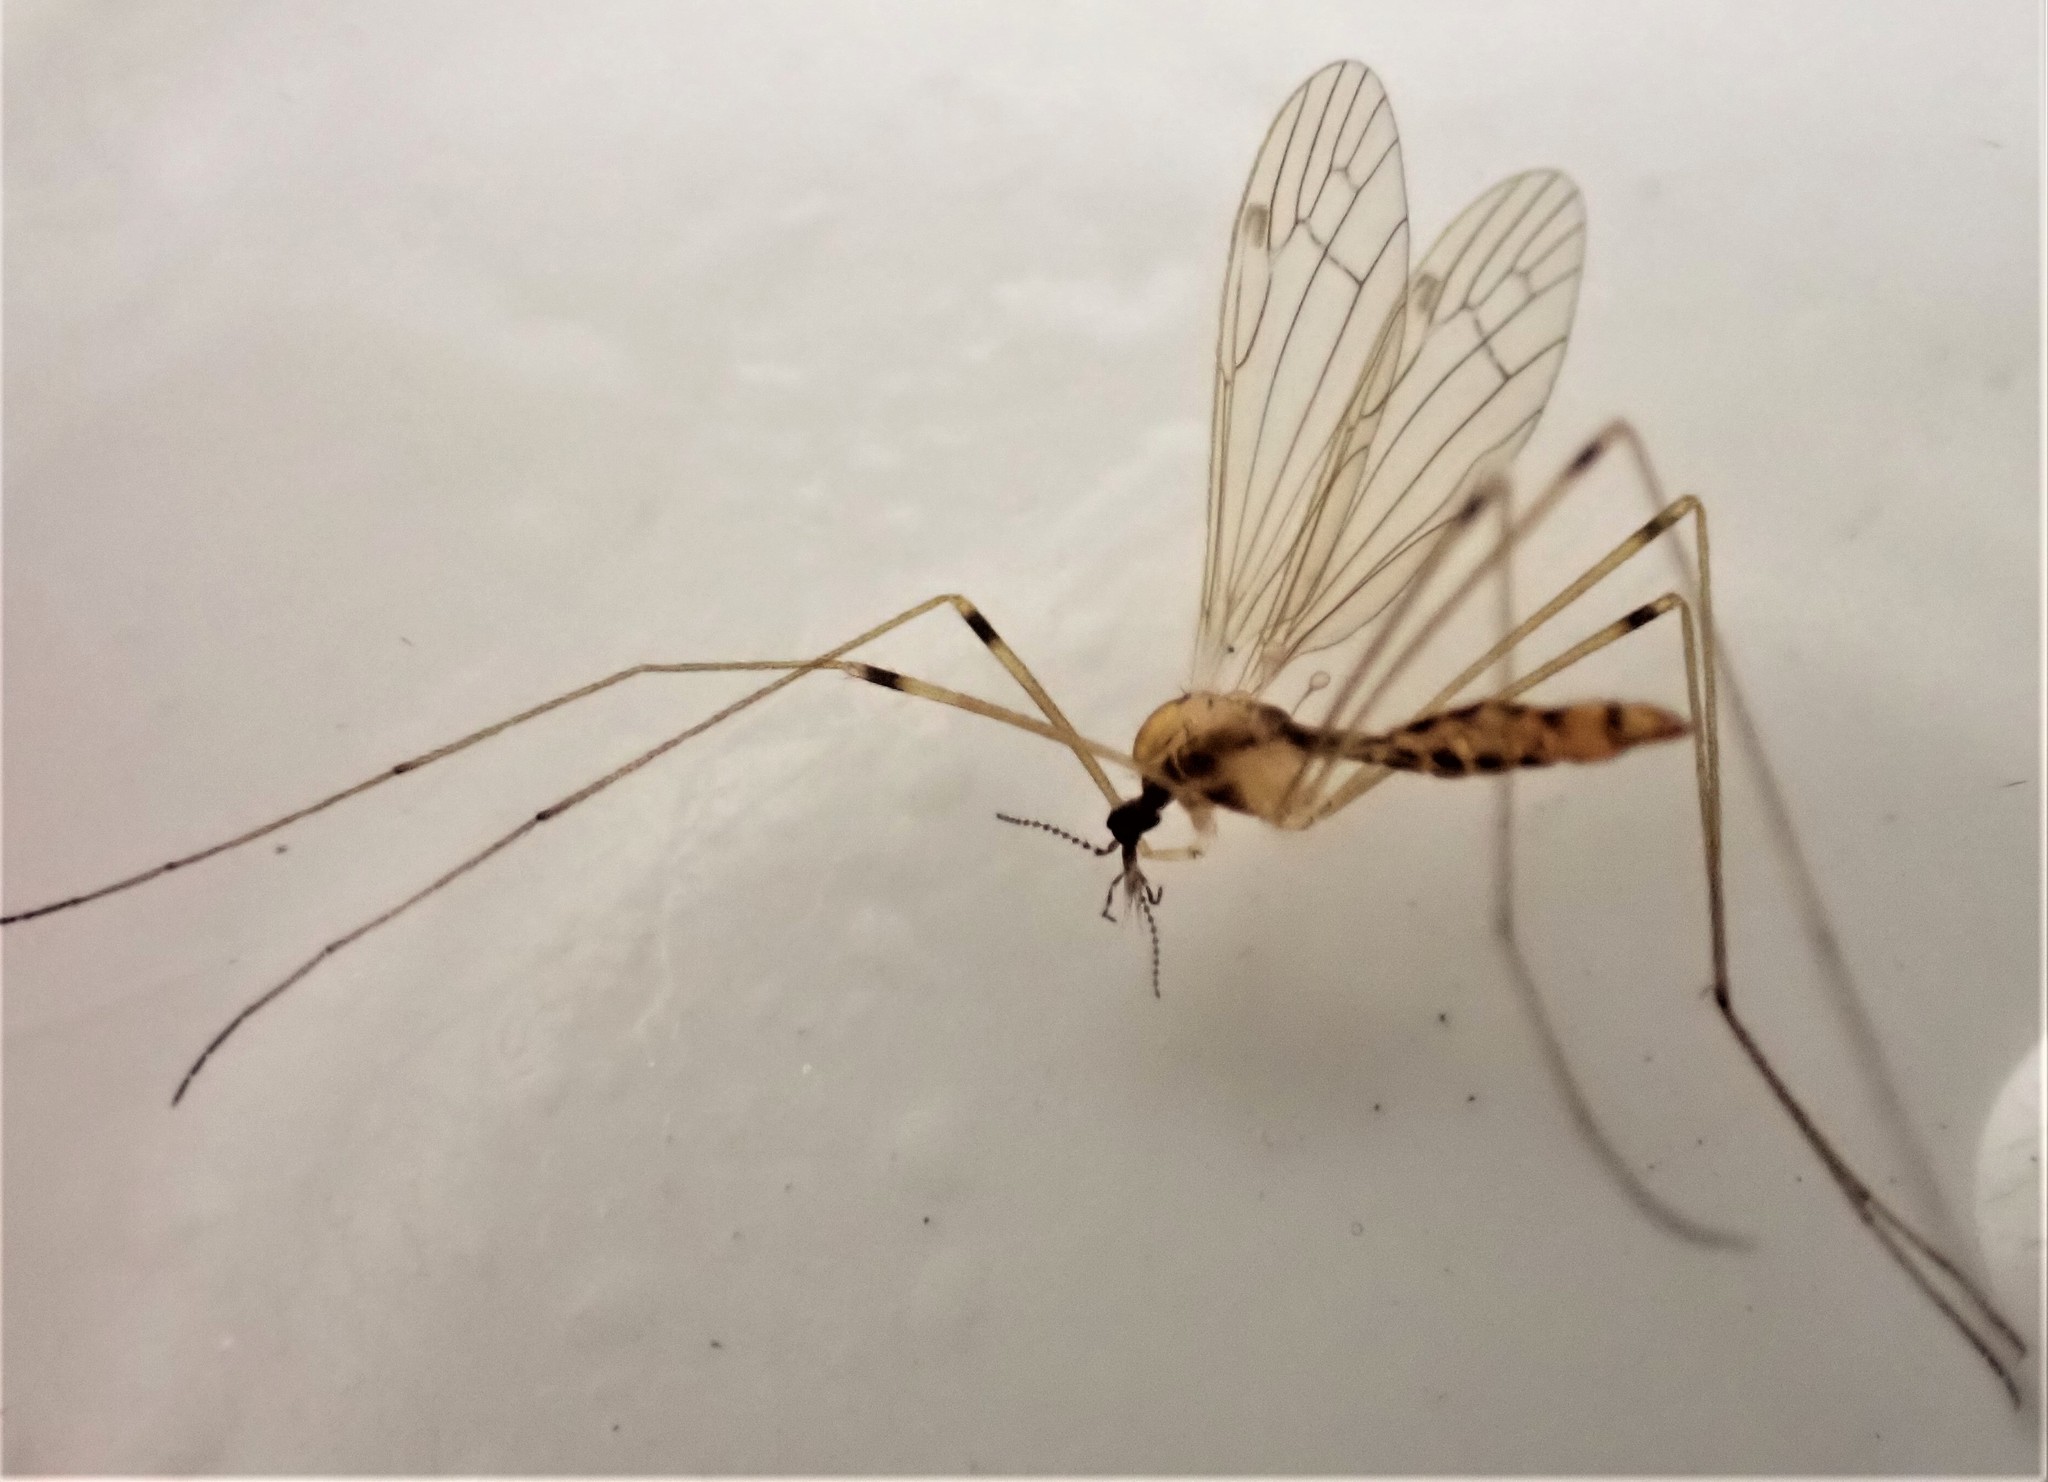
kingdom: Animalia
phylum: Arthropoda
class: Insecta
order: Diptera
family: Limoniidae
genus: Dicranomyia
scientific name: Dicranomyia sublacteata
